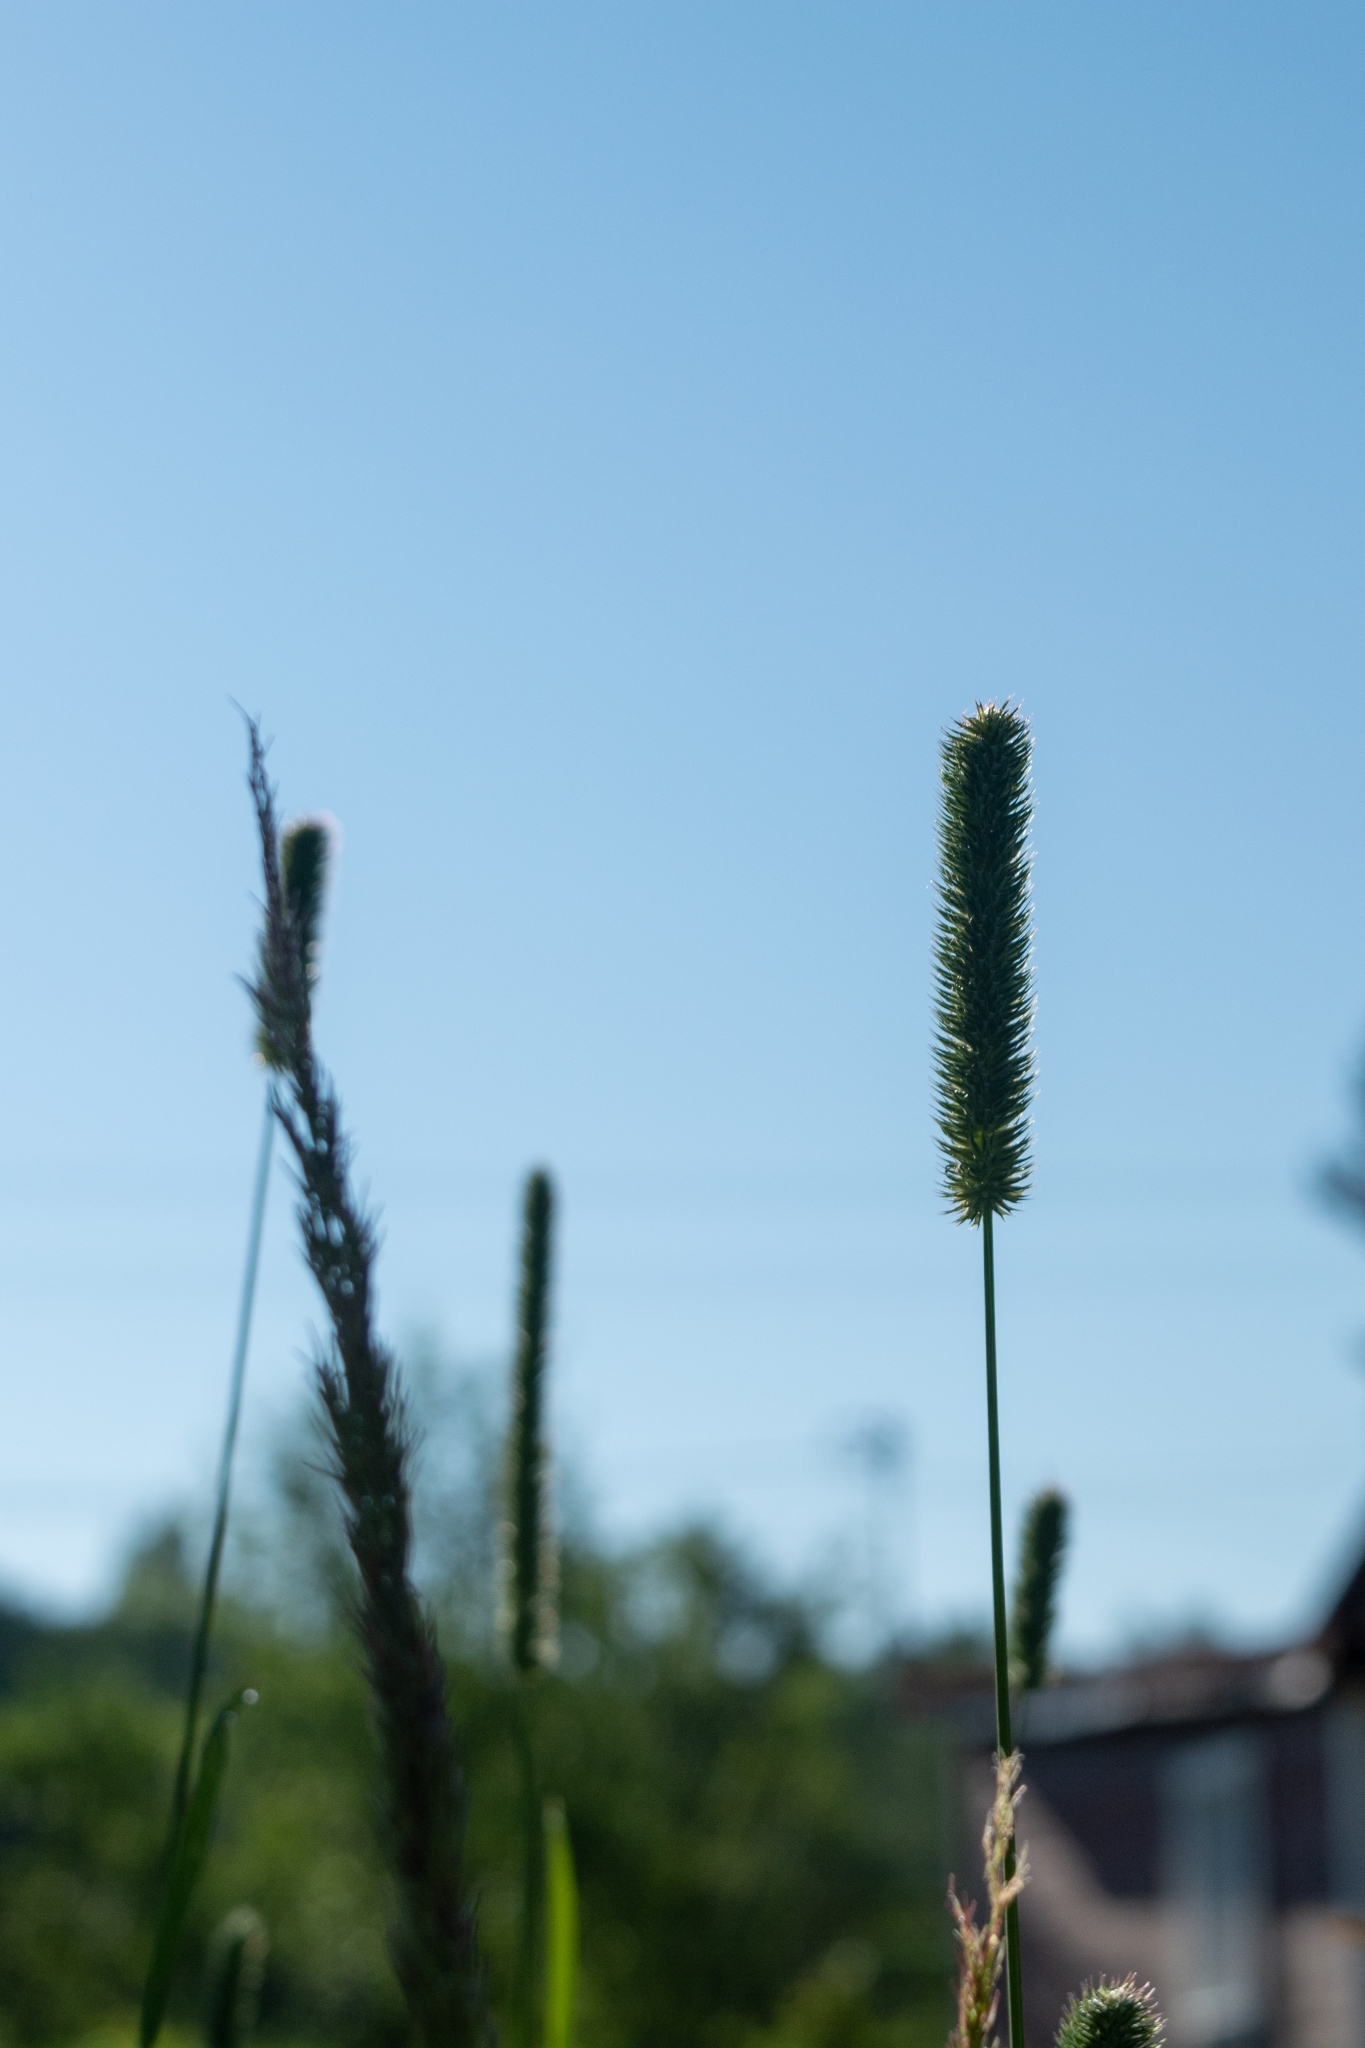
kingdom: Plantae
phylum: Tracheophyta
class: Liliopsida
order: Poales
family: Poaceae
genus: Phleum
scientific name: Phleum pratense
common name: Timothy grass
